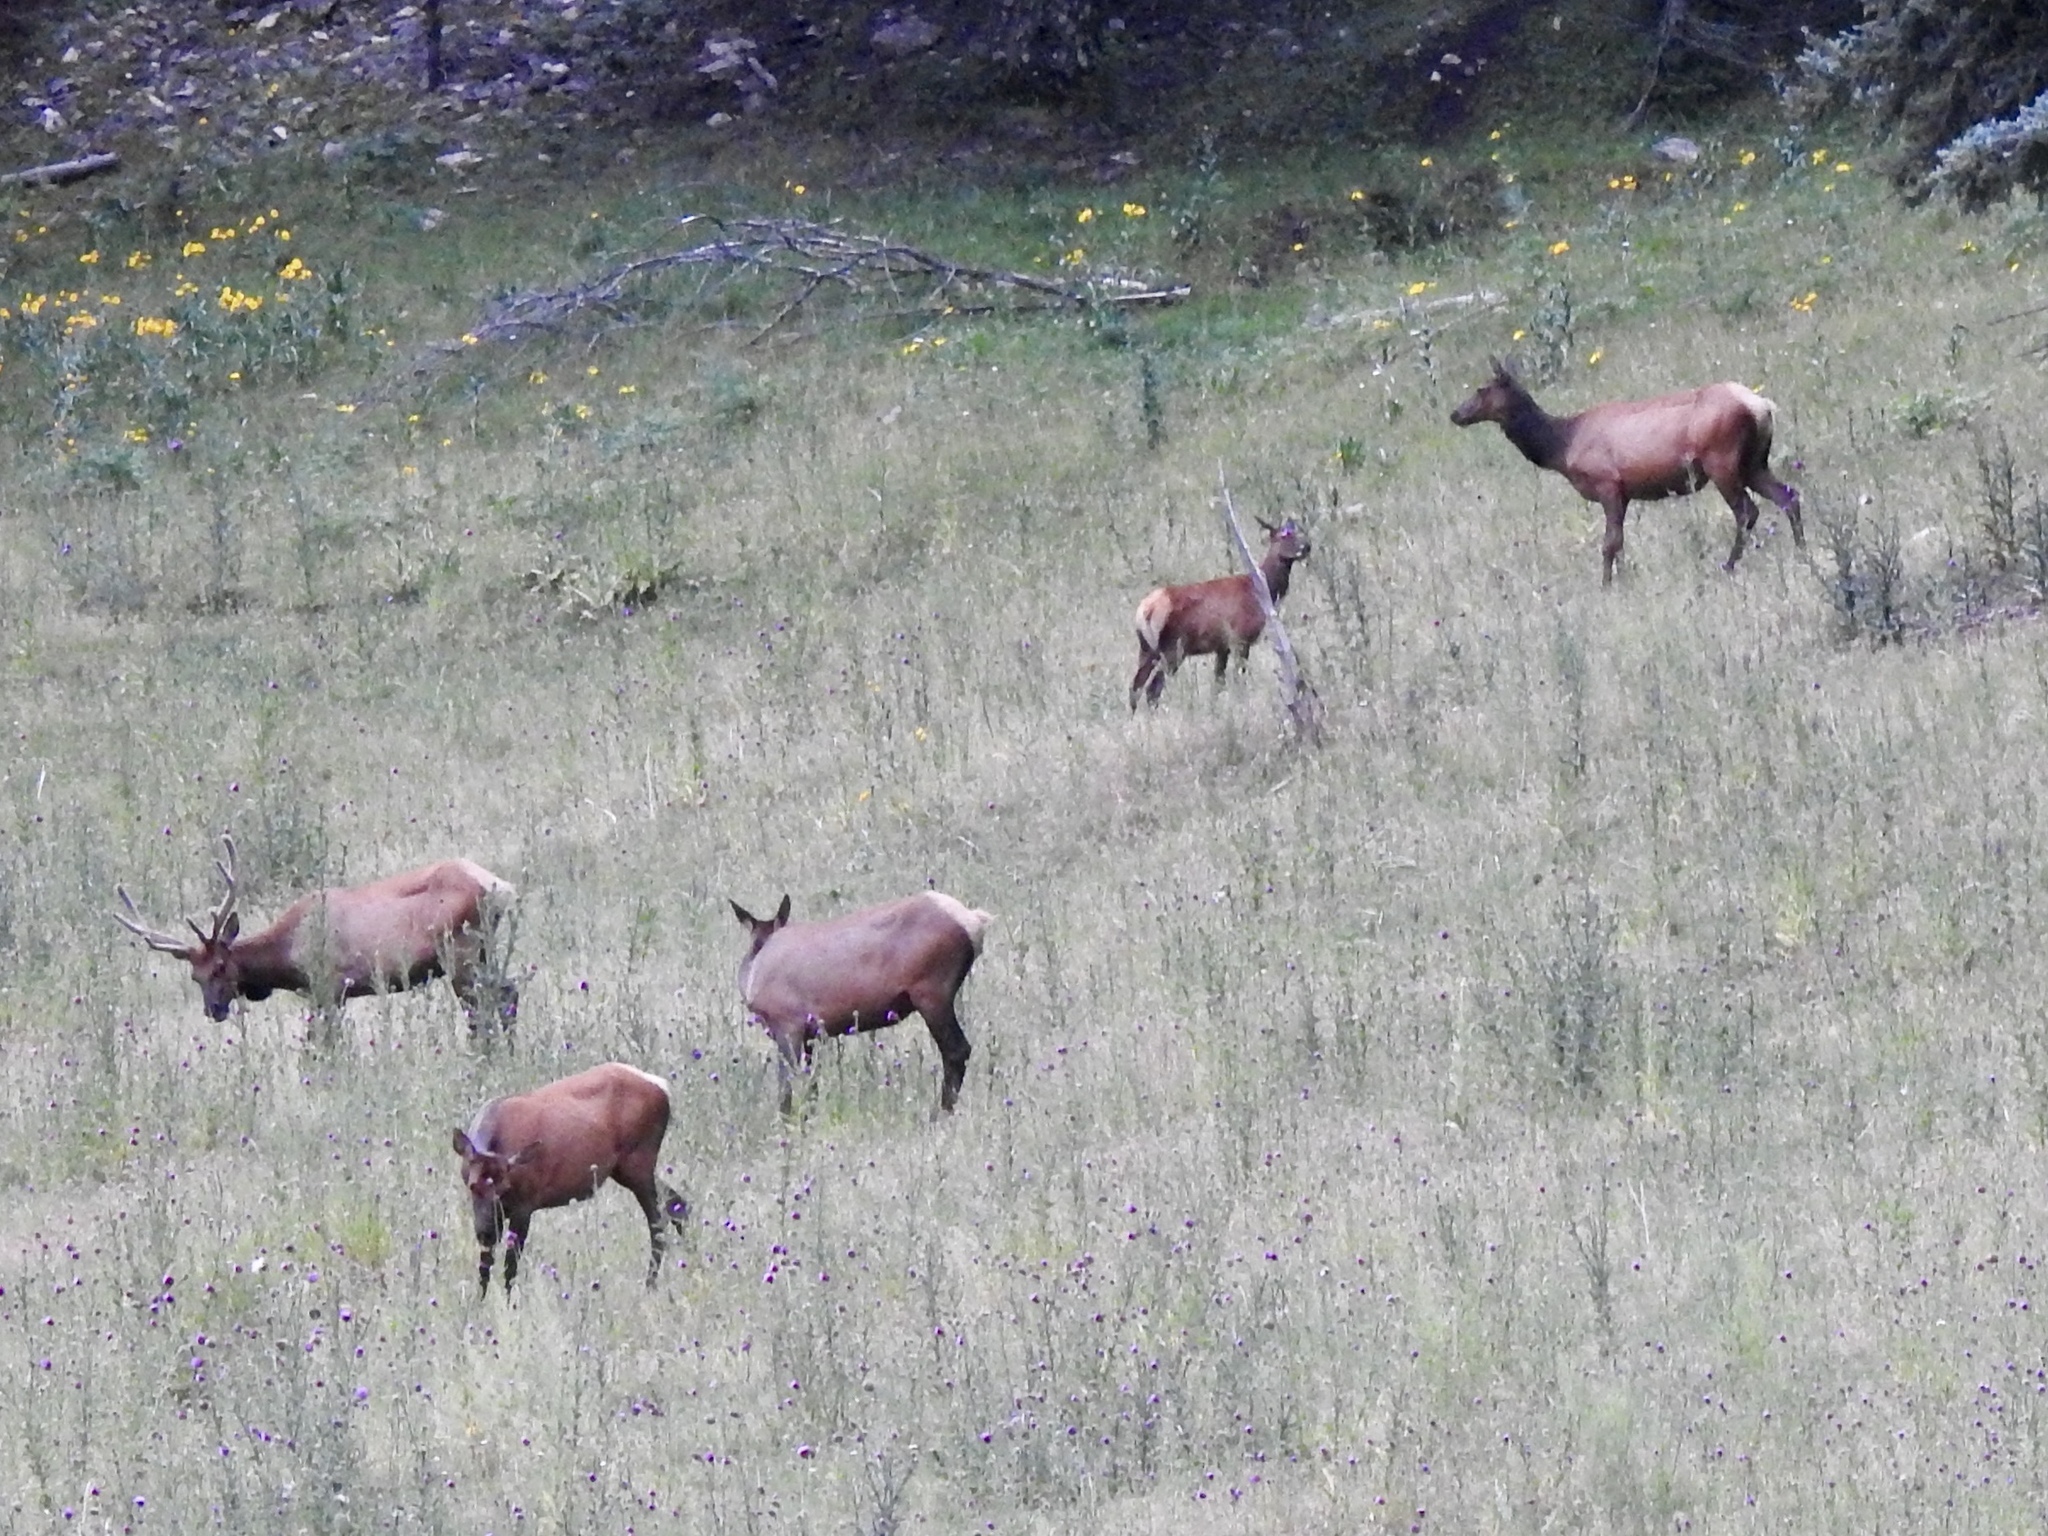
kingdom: Animalia
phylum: Chordata
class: Mammalia
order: Artiodactyla
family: Cervidae
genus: Cervus
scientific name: Cervus elaphus
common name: Red deer
